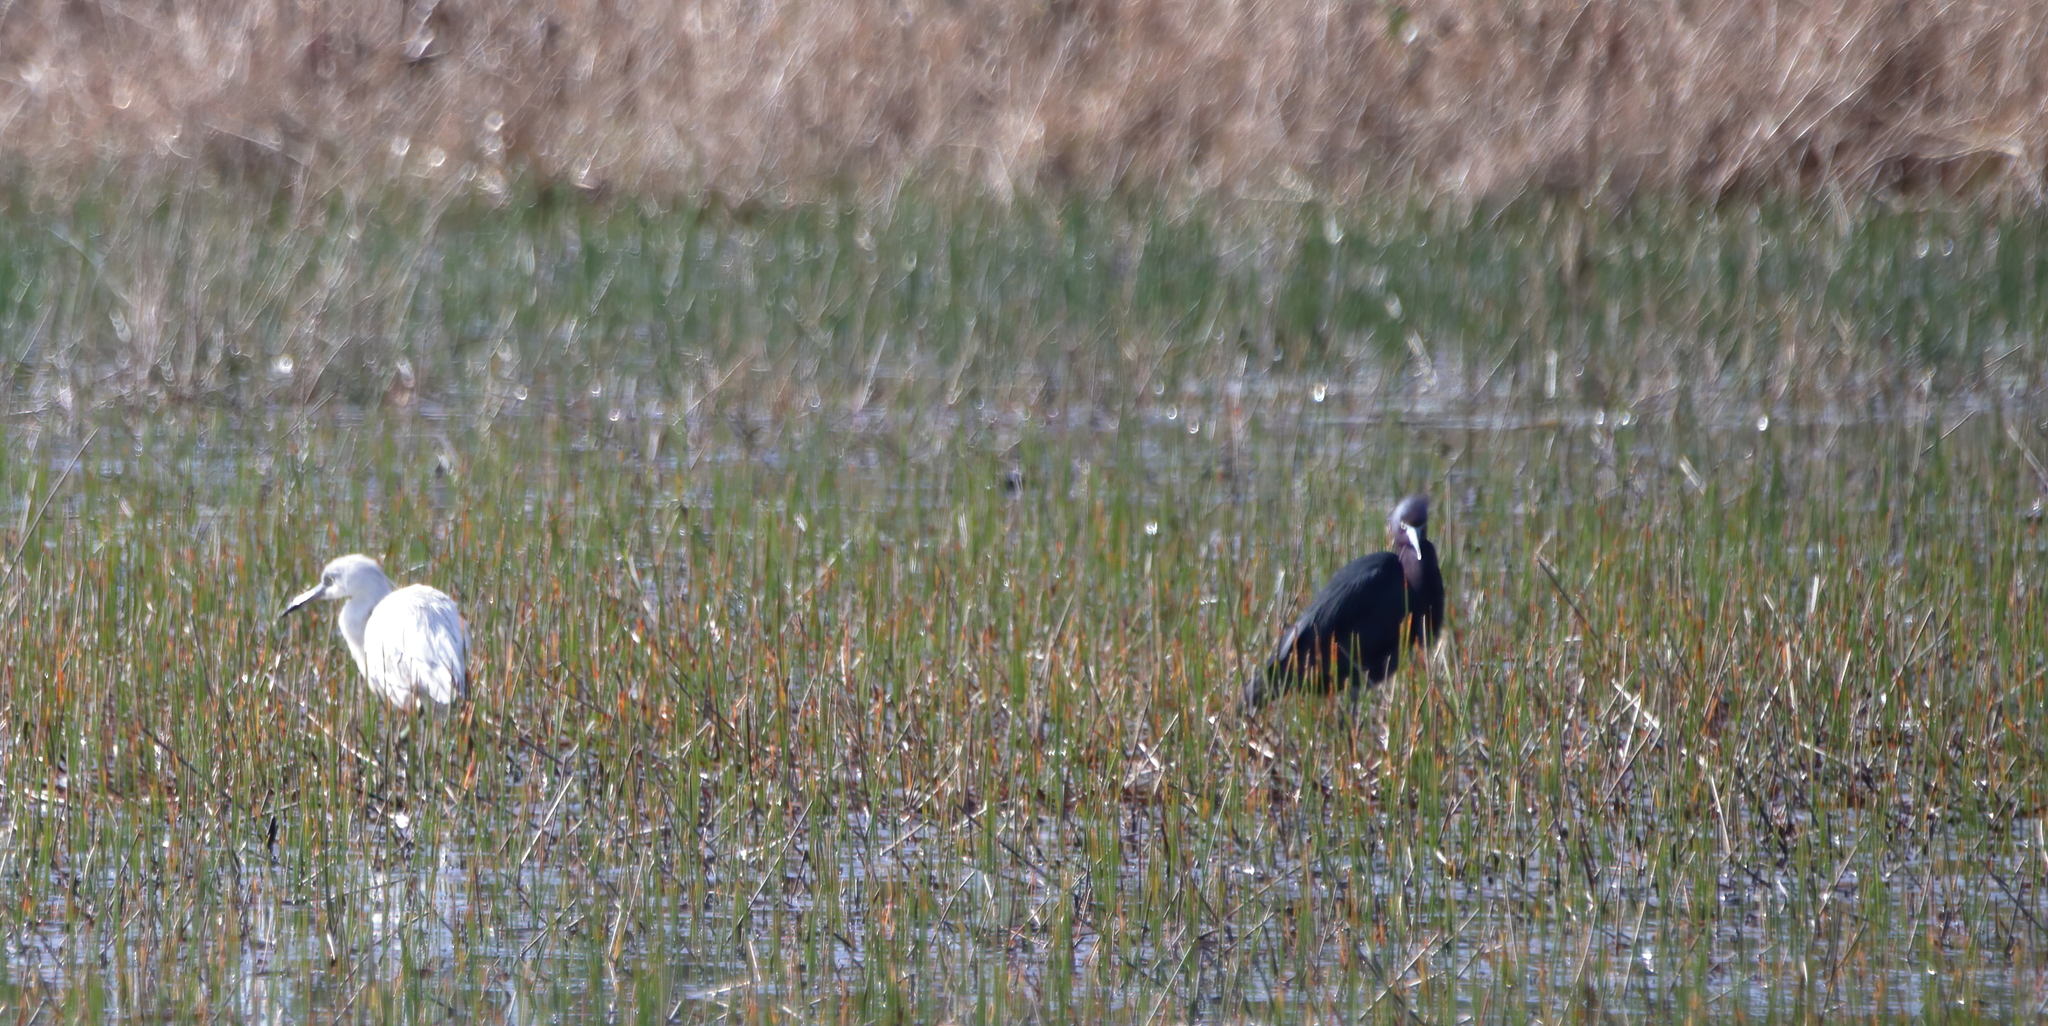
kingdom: Animalia
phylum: Chordata
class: Aves
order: Pelecaniformes
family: Ardeidae
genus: Egretta
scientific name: Egretta caerulea
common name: Little blue heron
